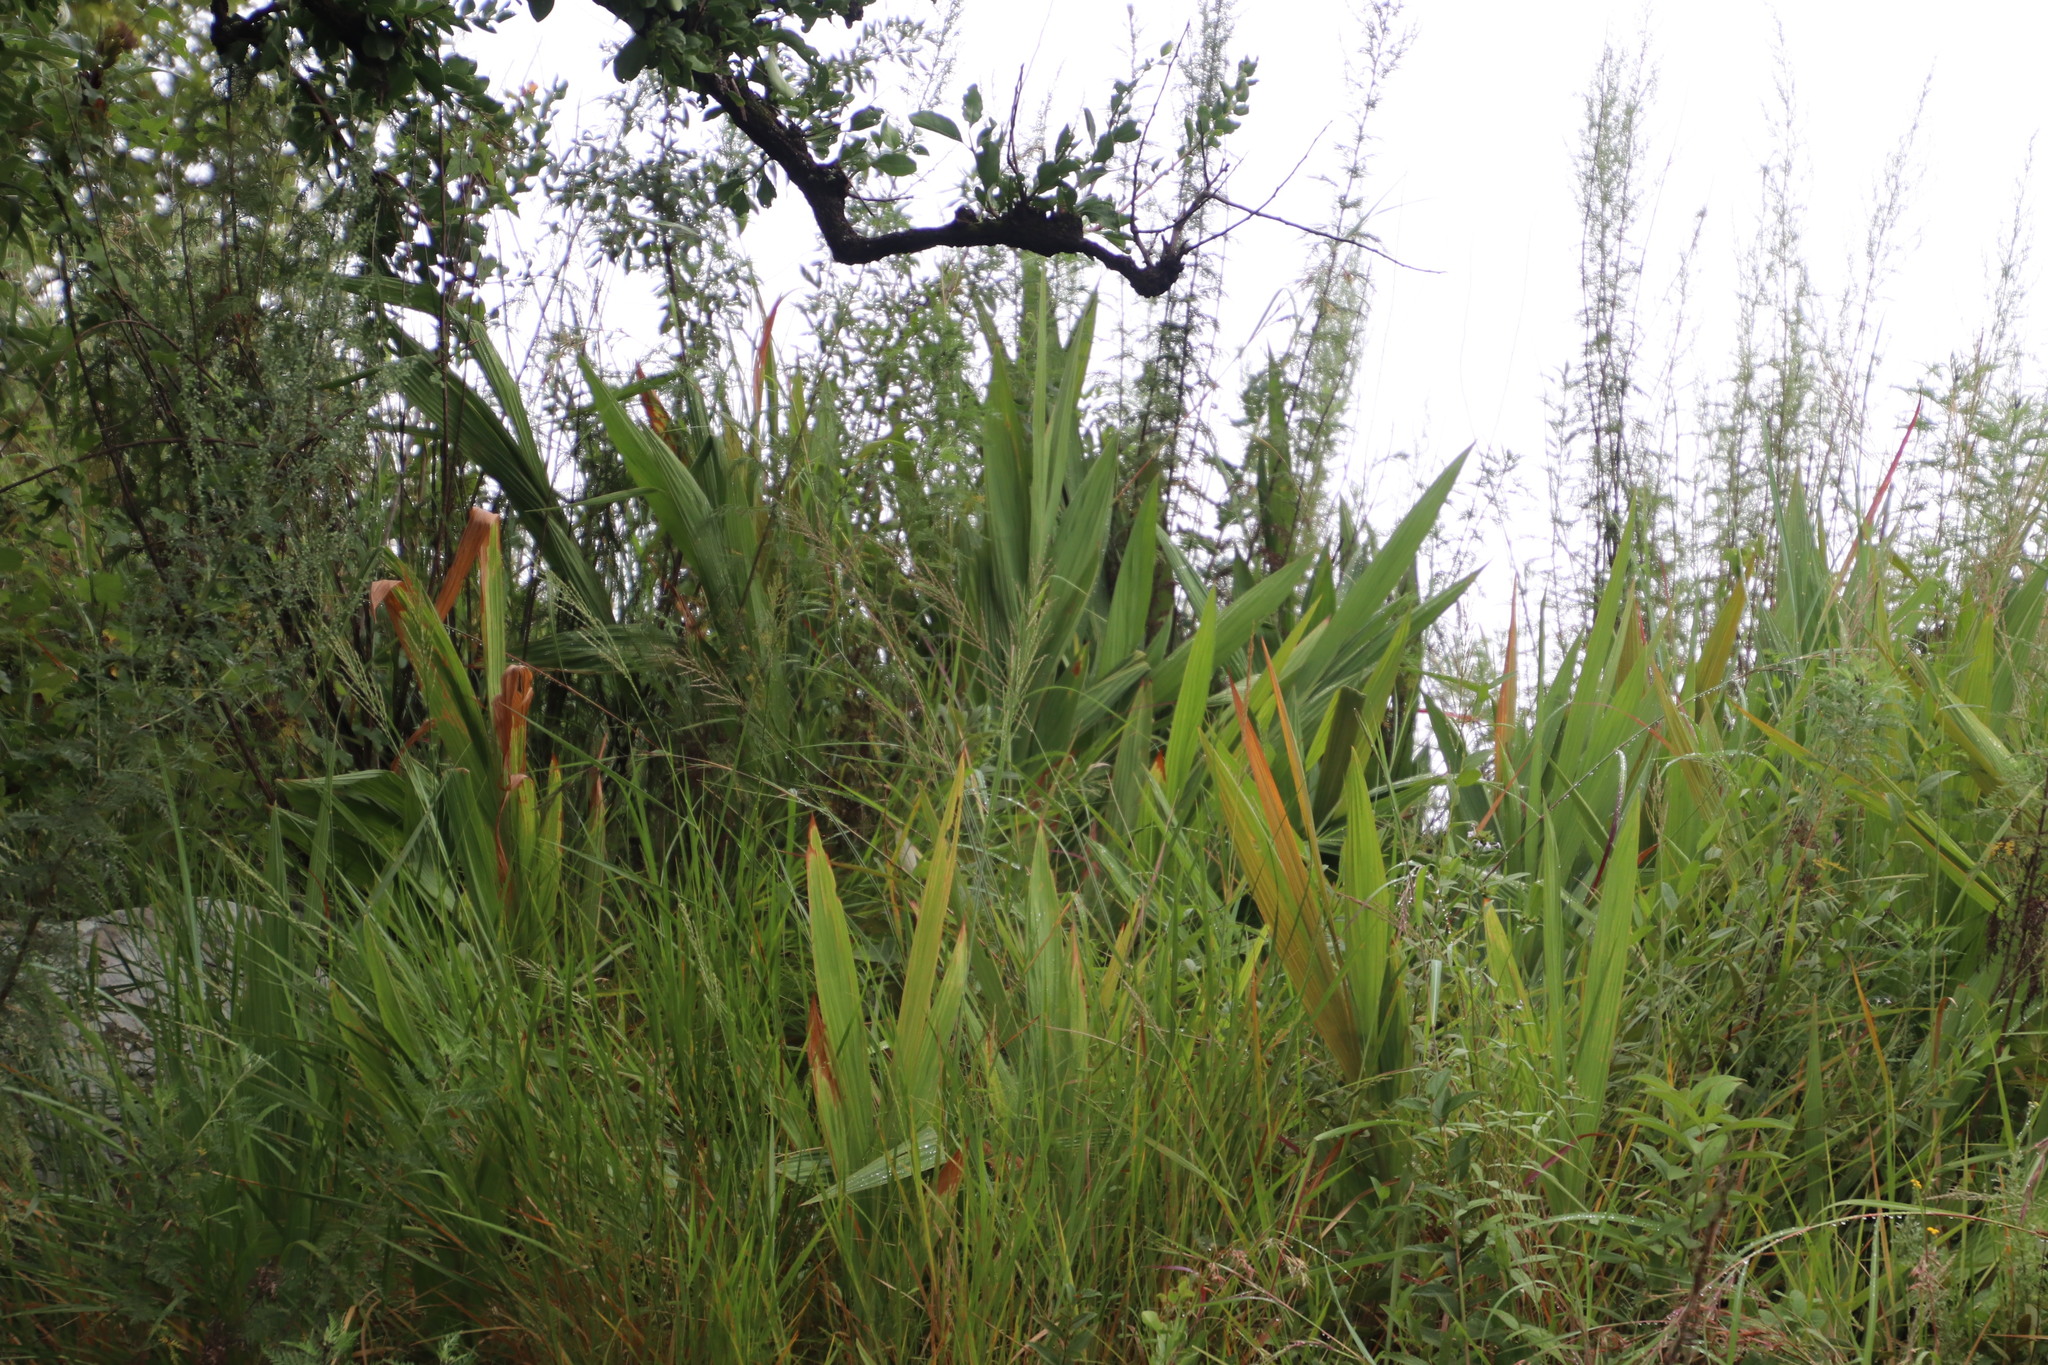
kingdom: Plantae
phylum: Tracheophyta
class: Liliopsida
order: Asparagales
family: Iridaceae
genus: Crocosmia
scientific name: Crocosmia paniculata
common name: Aunt eliza
